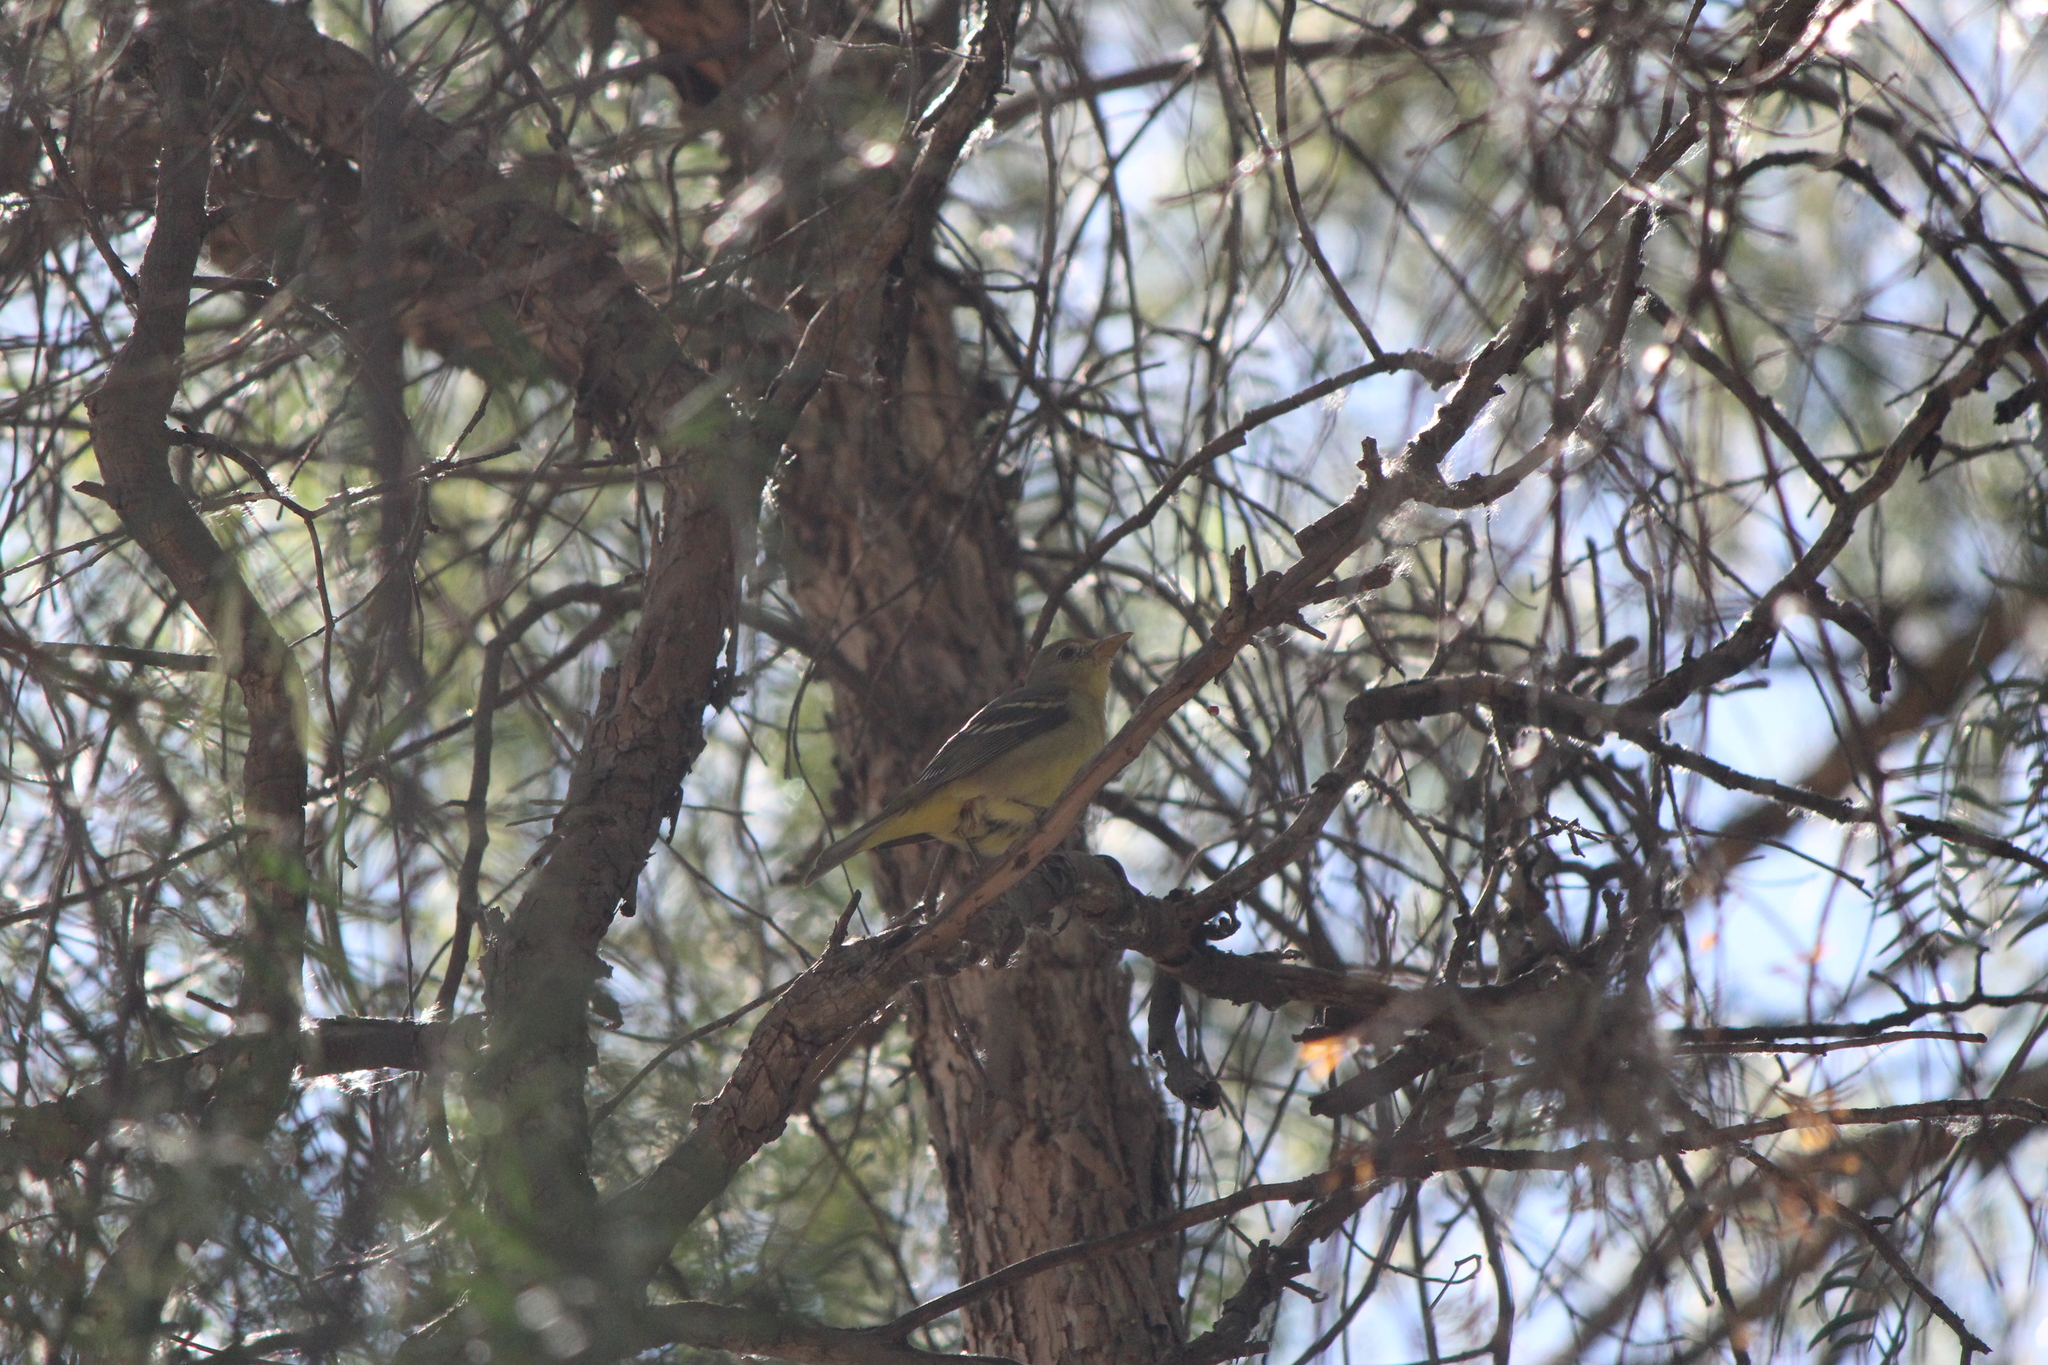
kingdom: Animalia
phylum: Chordata
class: Aves
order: Passeriformes
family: Cardinalidae
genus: Piranga
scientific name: Piranga ludoviciana
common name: Western tanager
